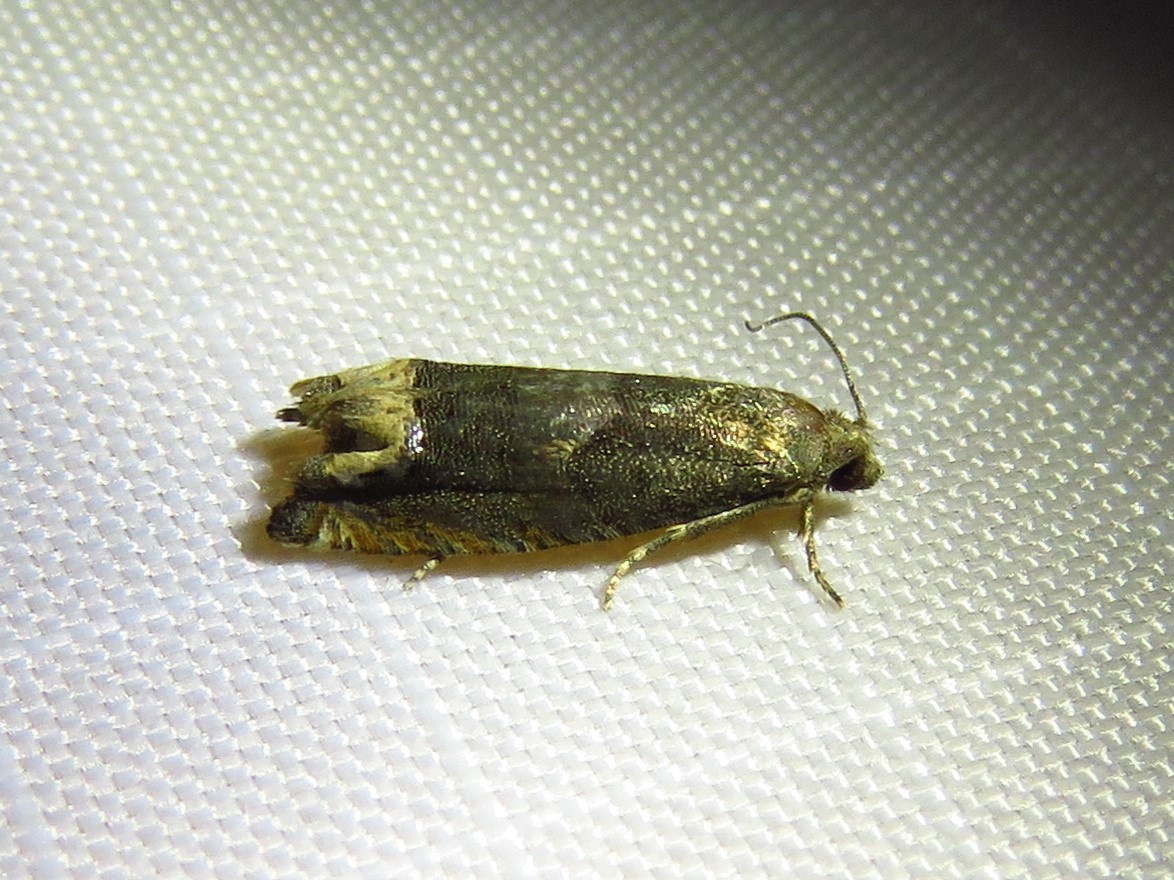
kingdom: Animalia
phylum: Arthropoda
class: Insecta
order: Lepidoptera
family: Tortricidae
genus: Epiblema
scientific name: Epiblema strenuana
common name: Ragweed borer moth
